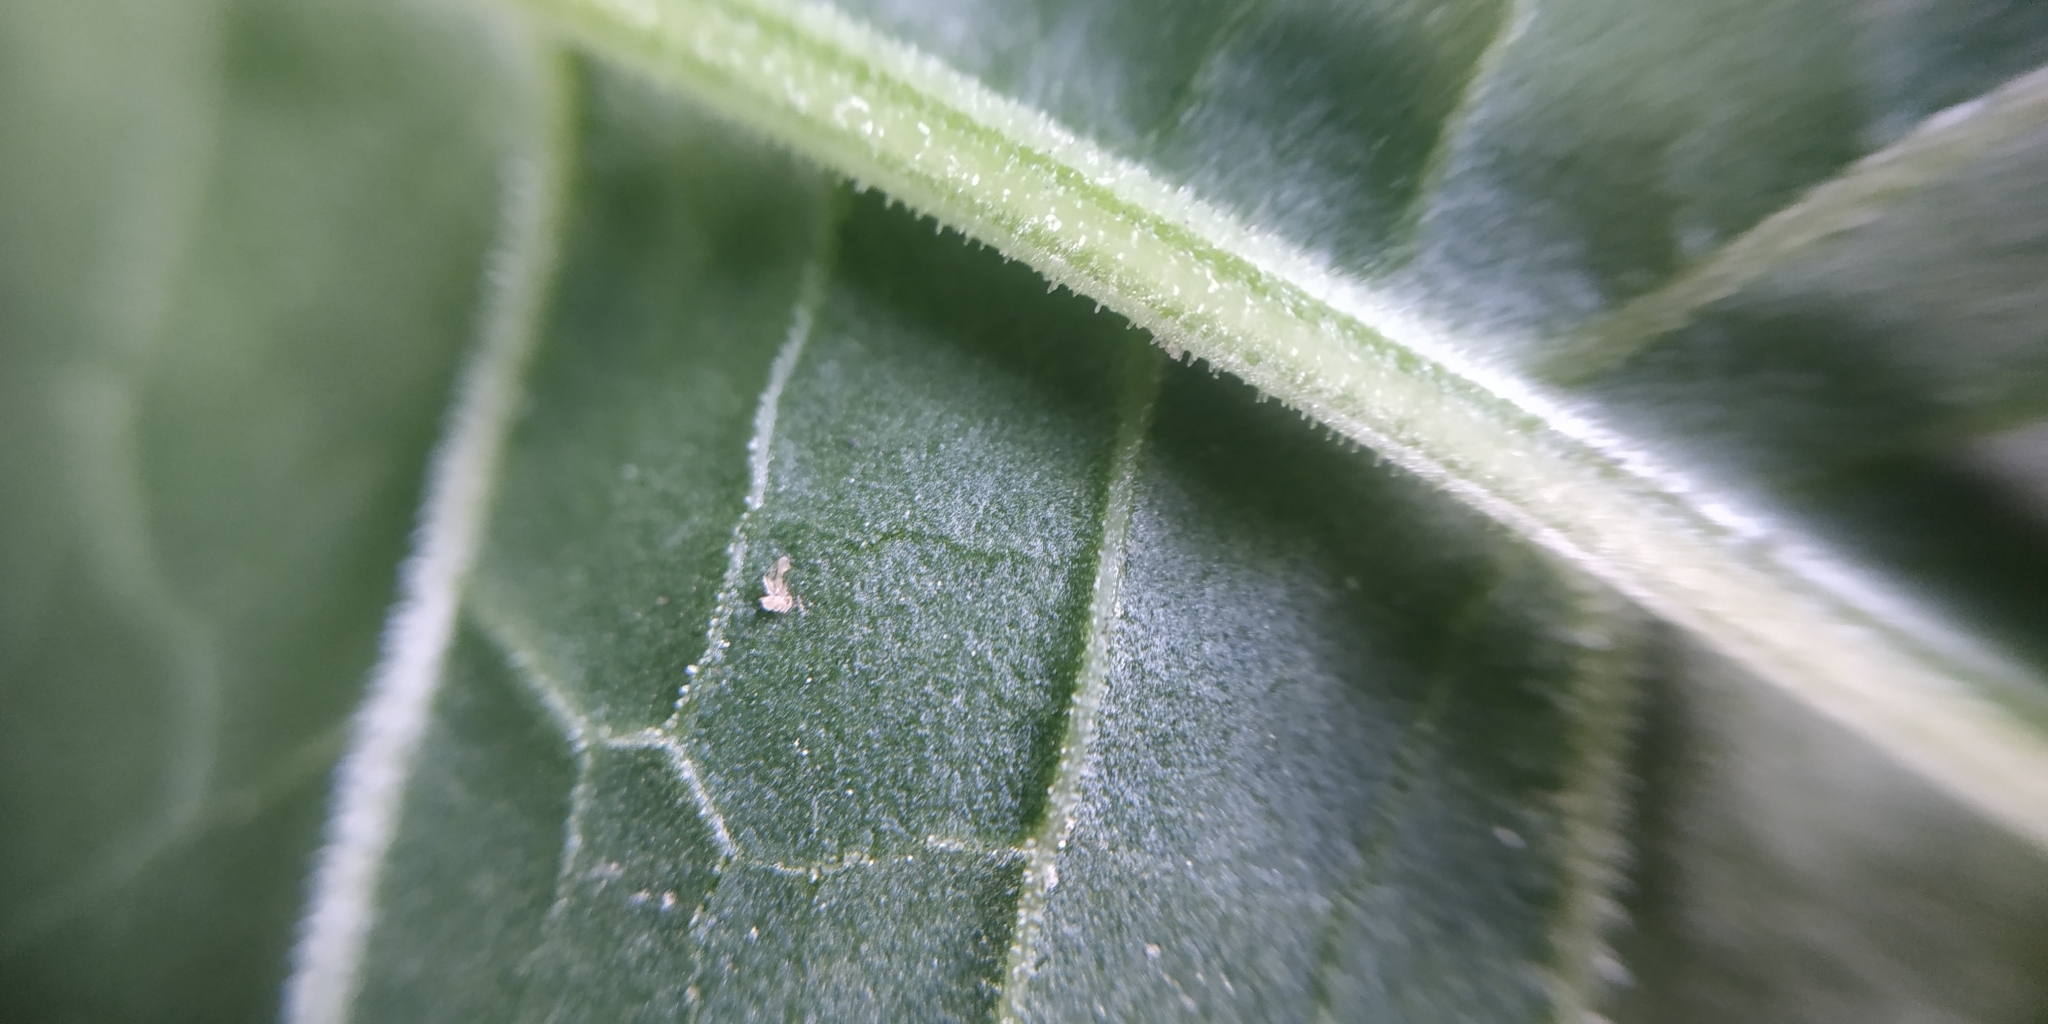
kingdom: Plantae
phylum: Tracheophyta
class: Magnoliopsida
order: Caryophyllales
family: Polygonaceae
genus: Rumex
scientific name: Rumex longifolius
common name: Dooryard dock
